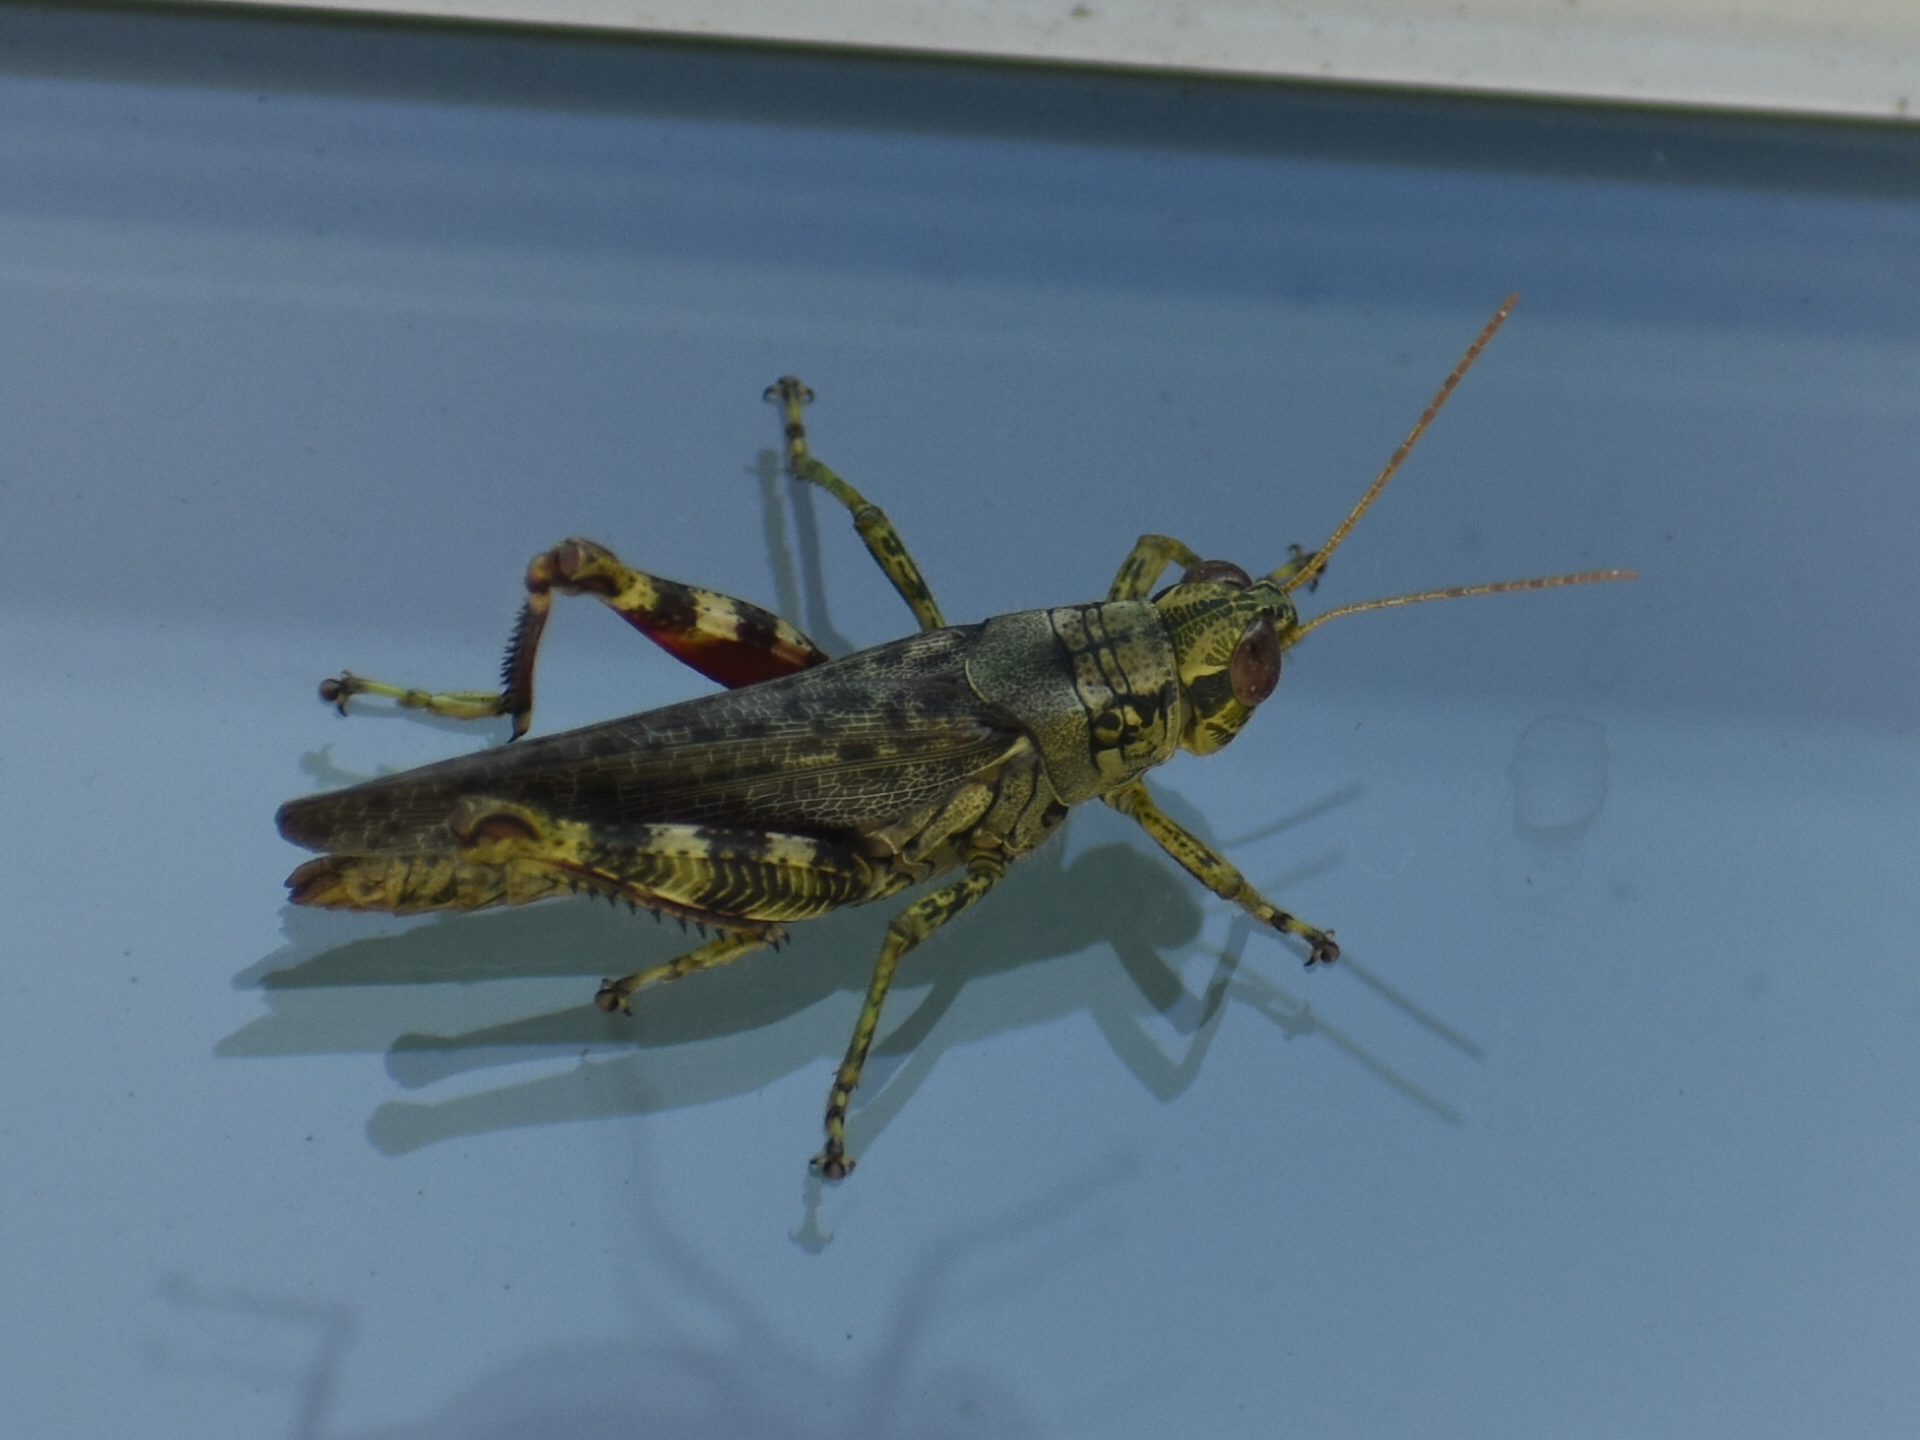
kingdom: Animalia
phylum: Arthropoda
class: Insecta
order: Orthoptera
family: Acrididae
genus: Melanoplus
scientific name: Melanoplus punctulatus
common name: Pine-tree spur-throat grasshopper
